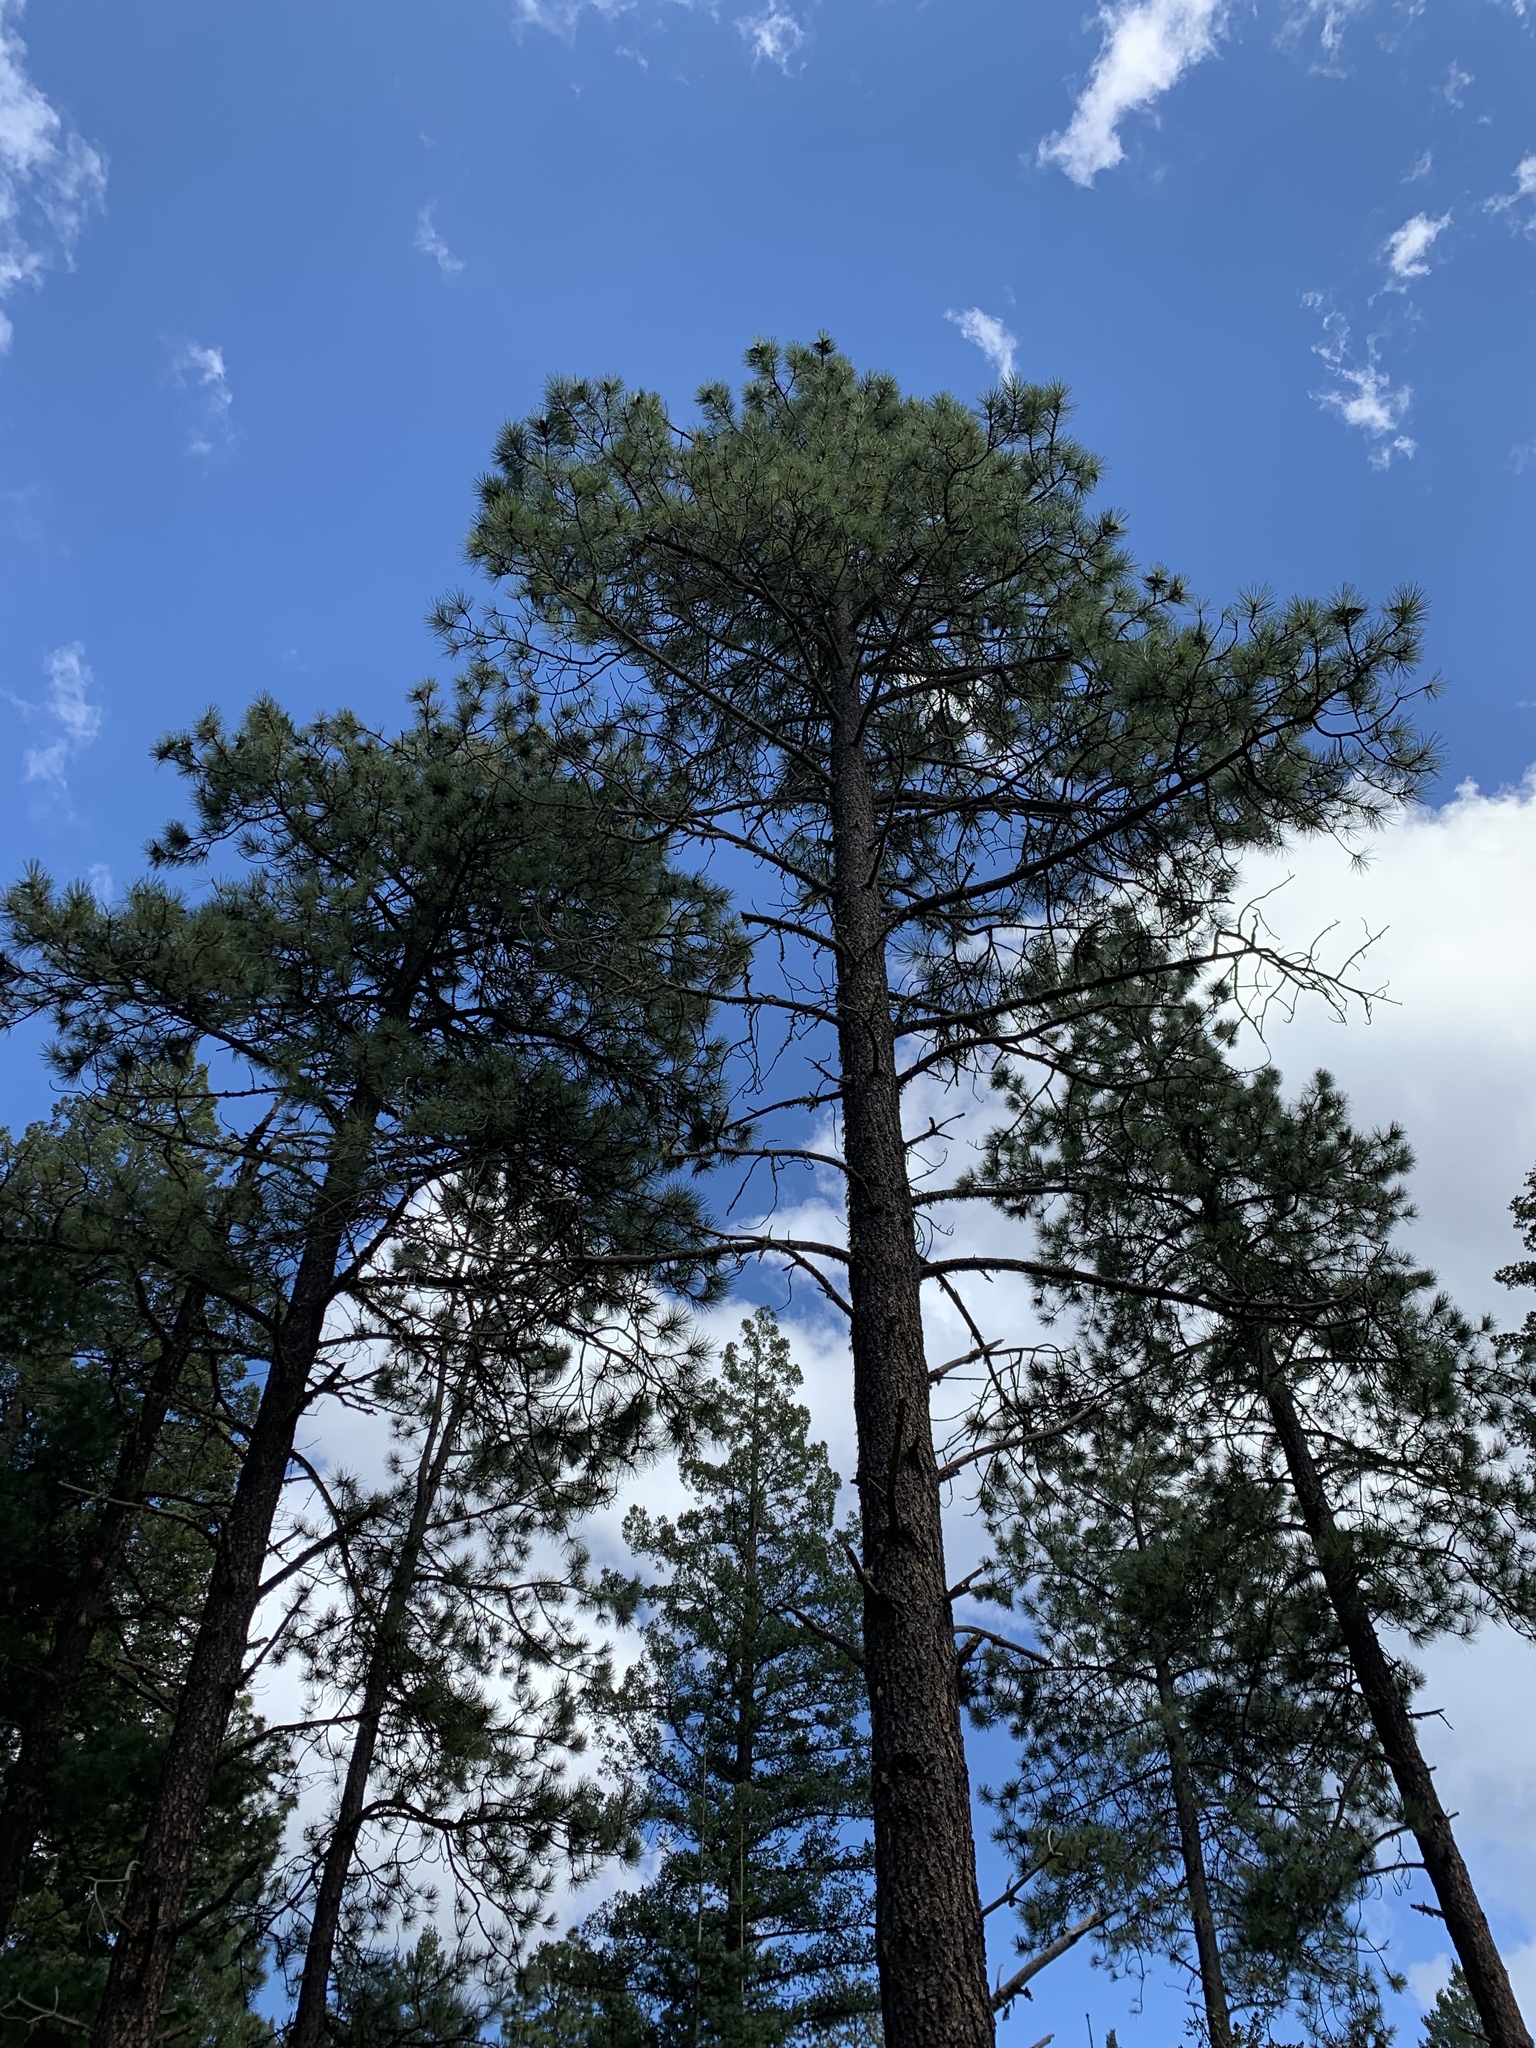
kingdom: Plantae
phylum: Tracheophyta
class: Pinopsida
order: Pinales
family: Pinaceae
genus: Pinus
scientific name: Pinus ponderosa
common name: Western yellow-pine
